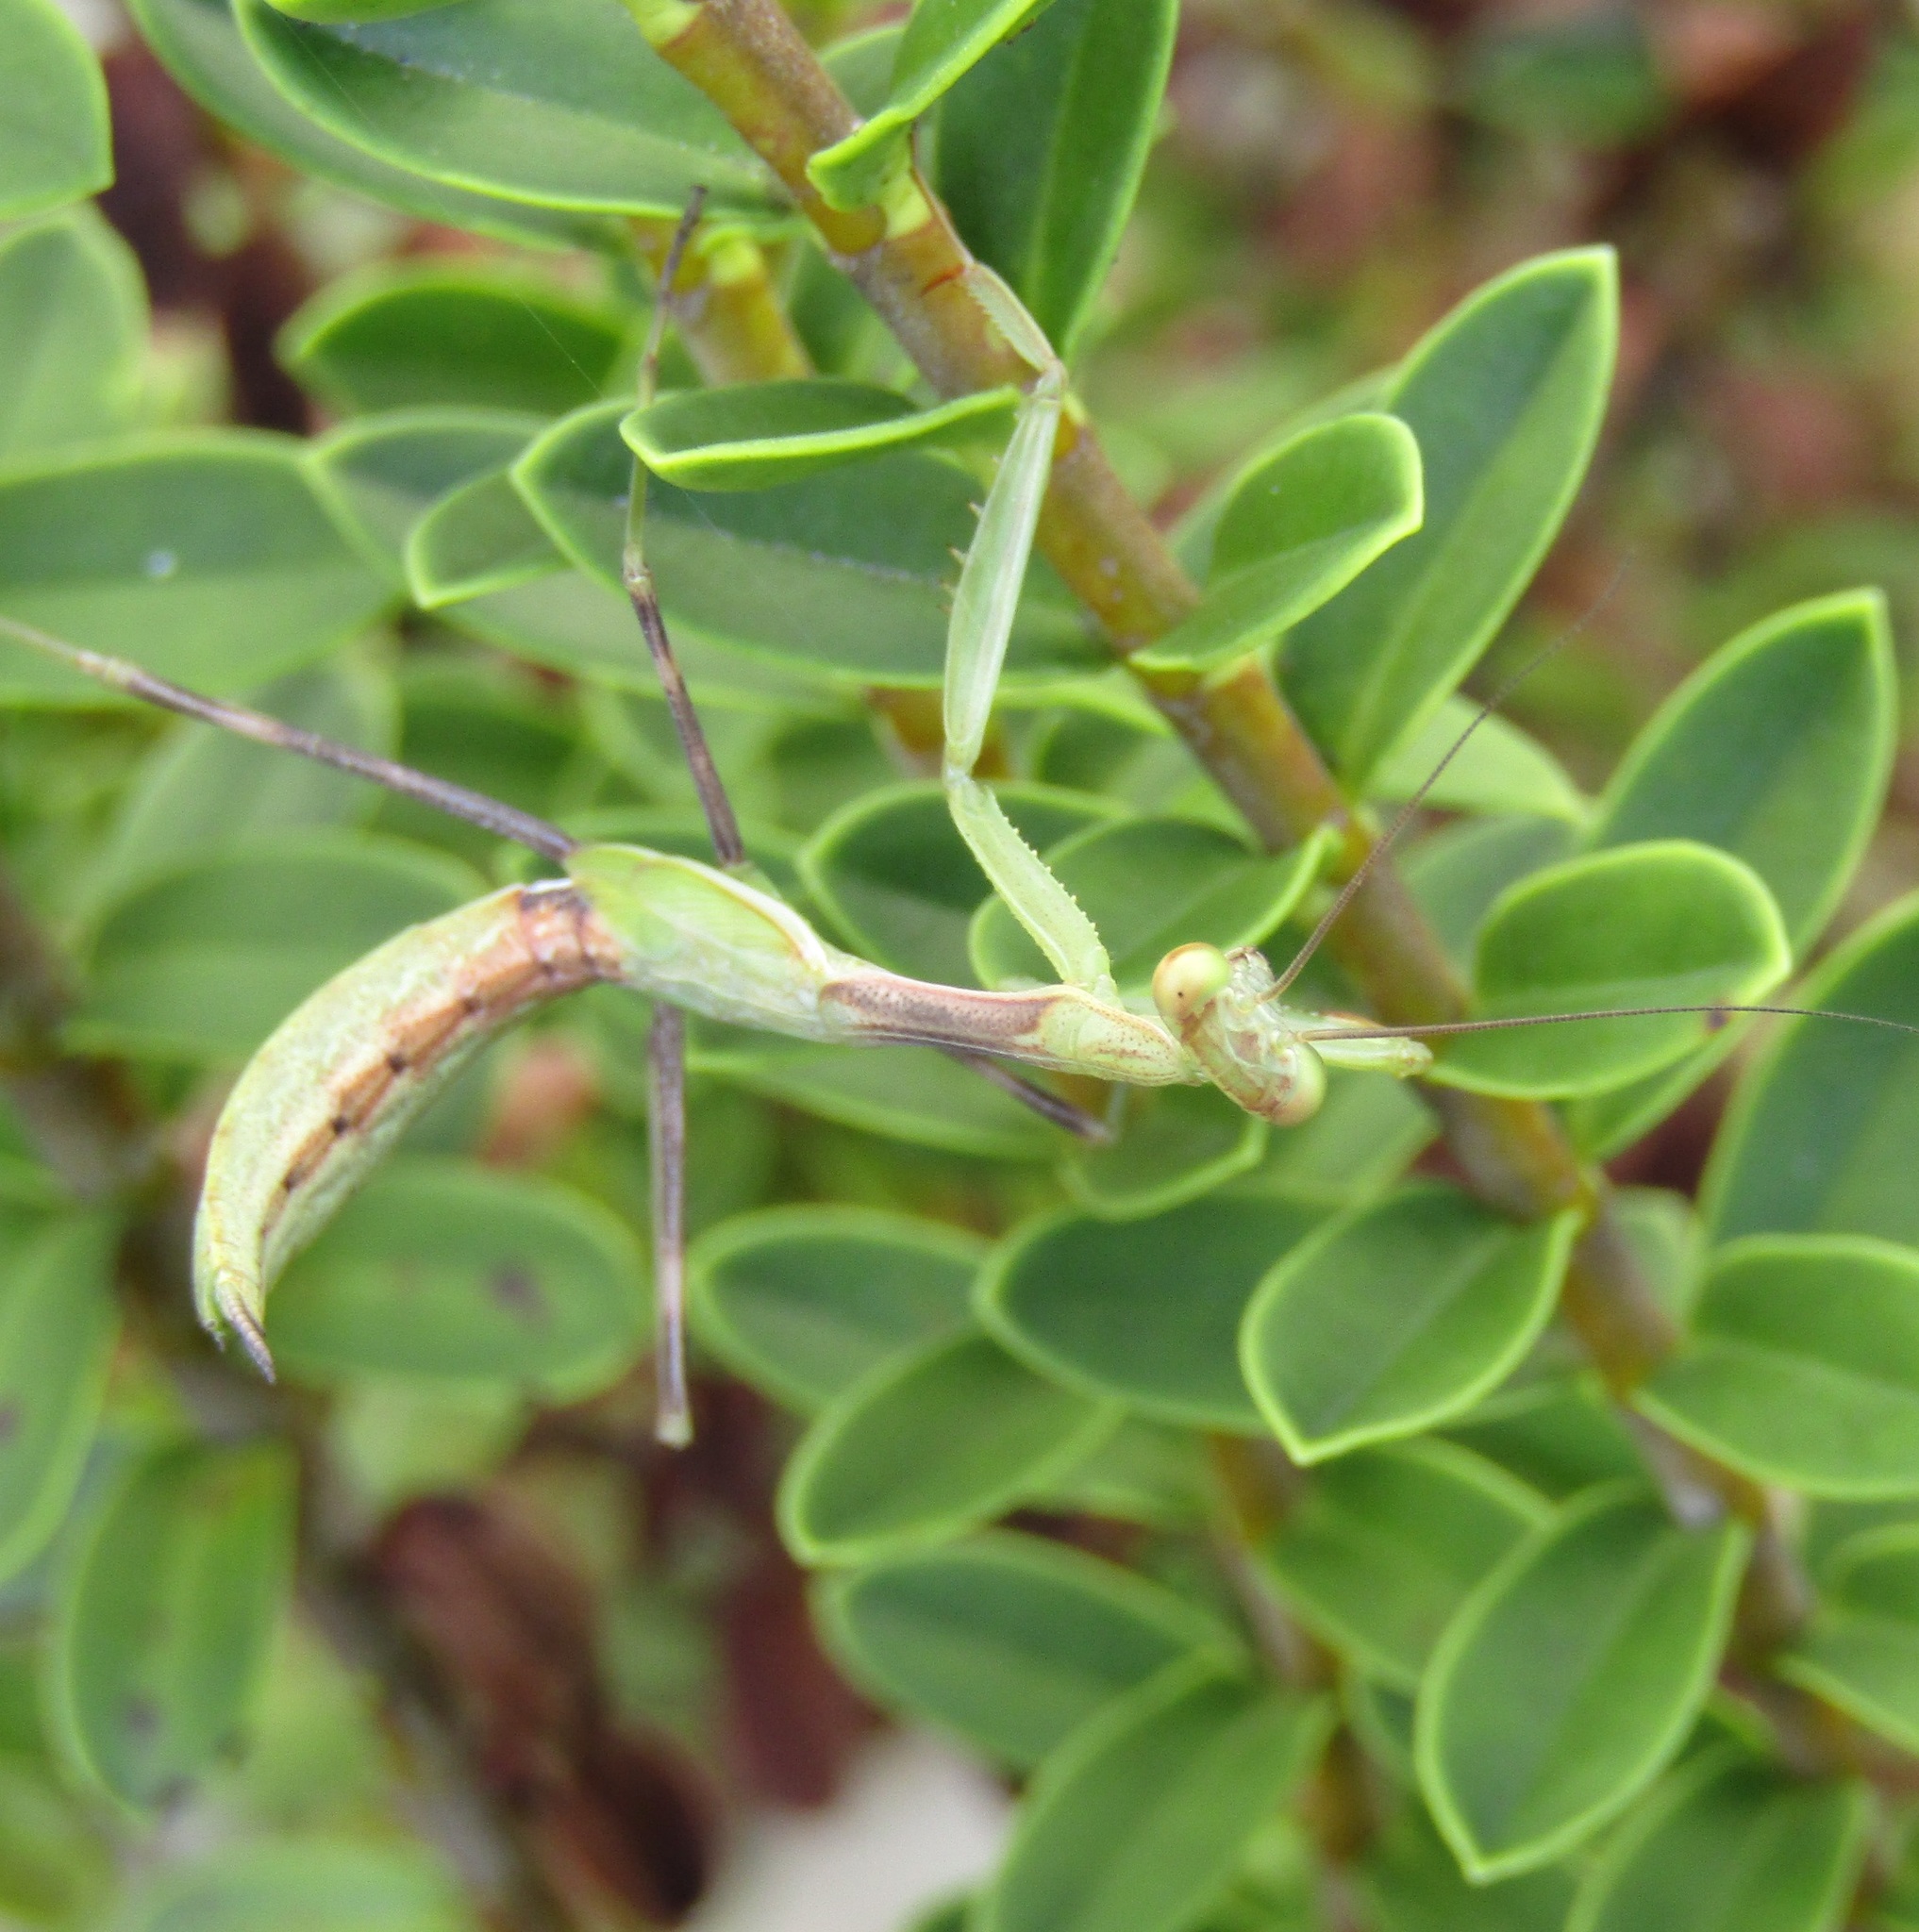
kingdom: Animalia
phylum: Arthropoda
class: Insecta
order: Mantodea
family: Miomantidae
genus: Miomantis
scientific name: Miomantis caffra
